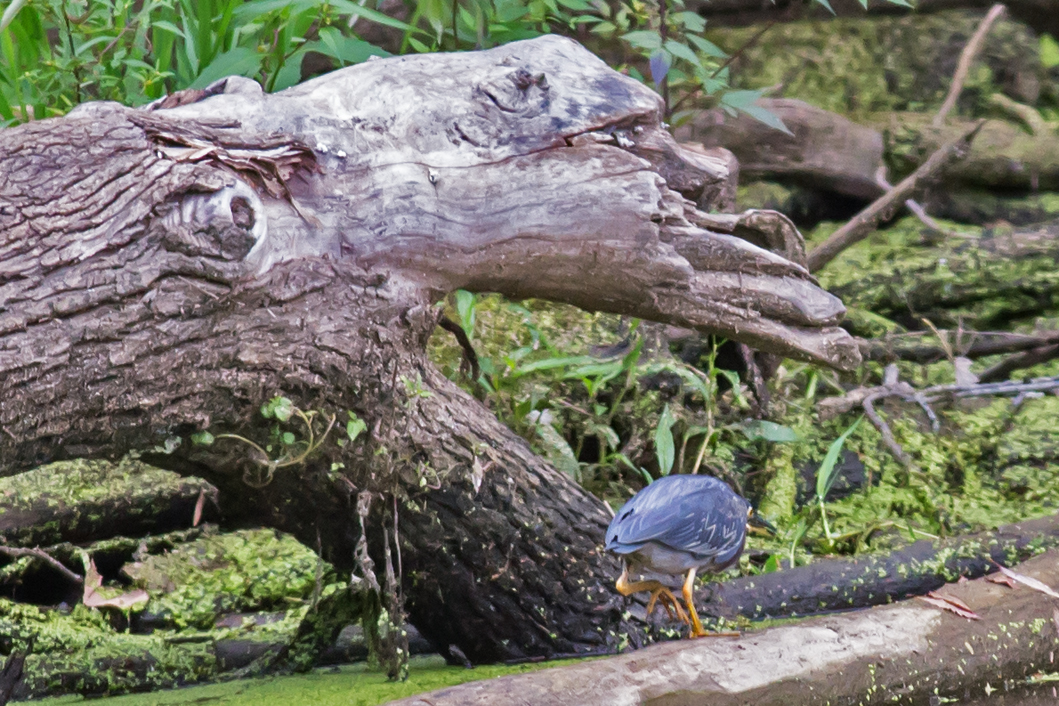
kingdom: Animalia
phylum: Chordata
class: Aves
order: Pelecaniformes
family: Ardeidae
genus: Butorides
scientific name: Butorides virescens
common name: Green heron
